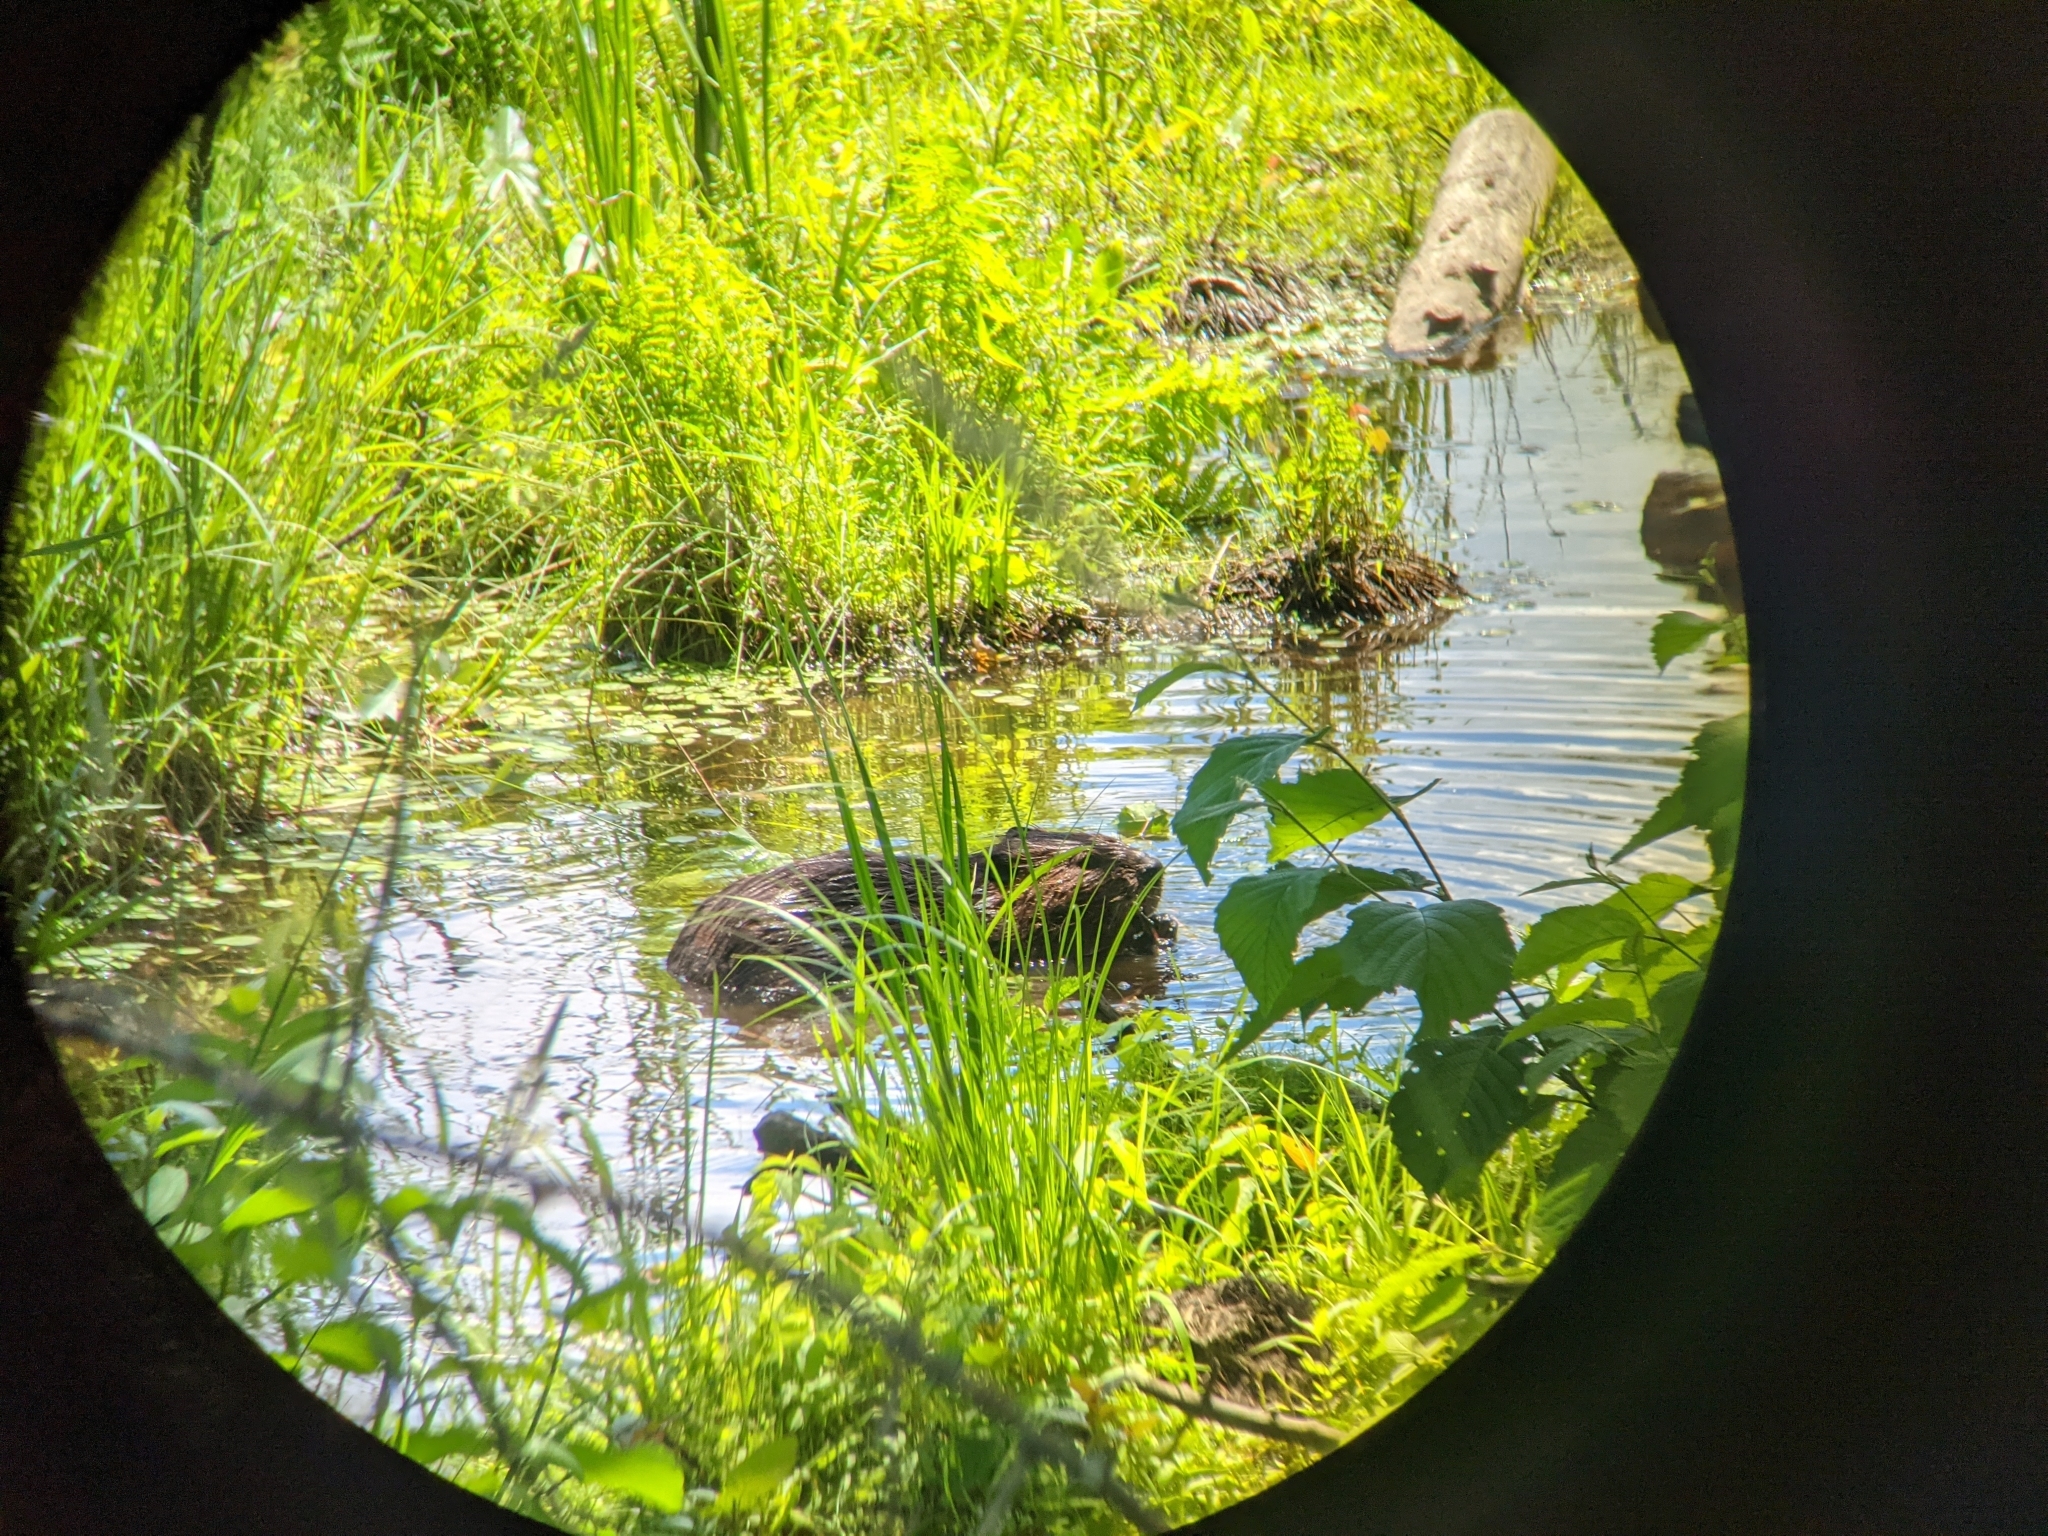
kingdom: Animalia
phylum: Chordata
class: Mammalia
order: Rodentia
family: Castoridae
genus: Castor
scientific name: Castor canadensis
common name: American beaver
